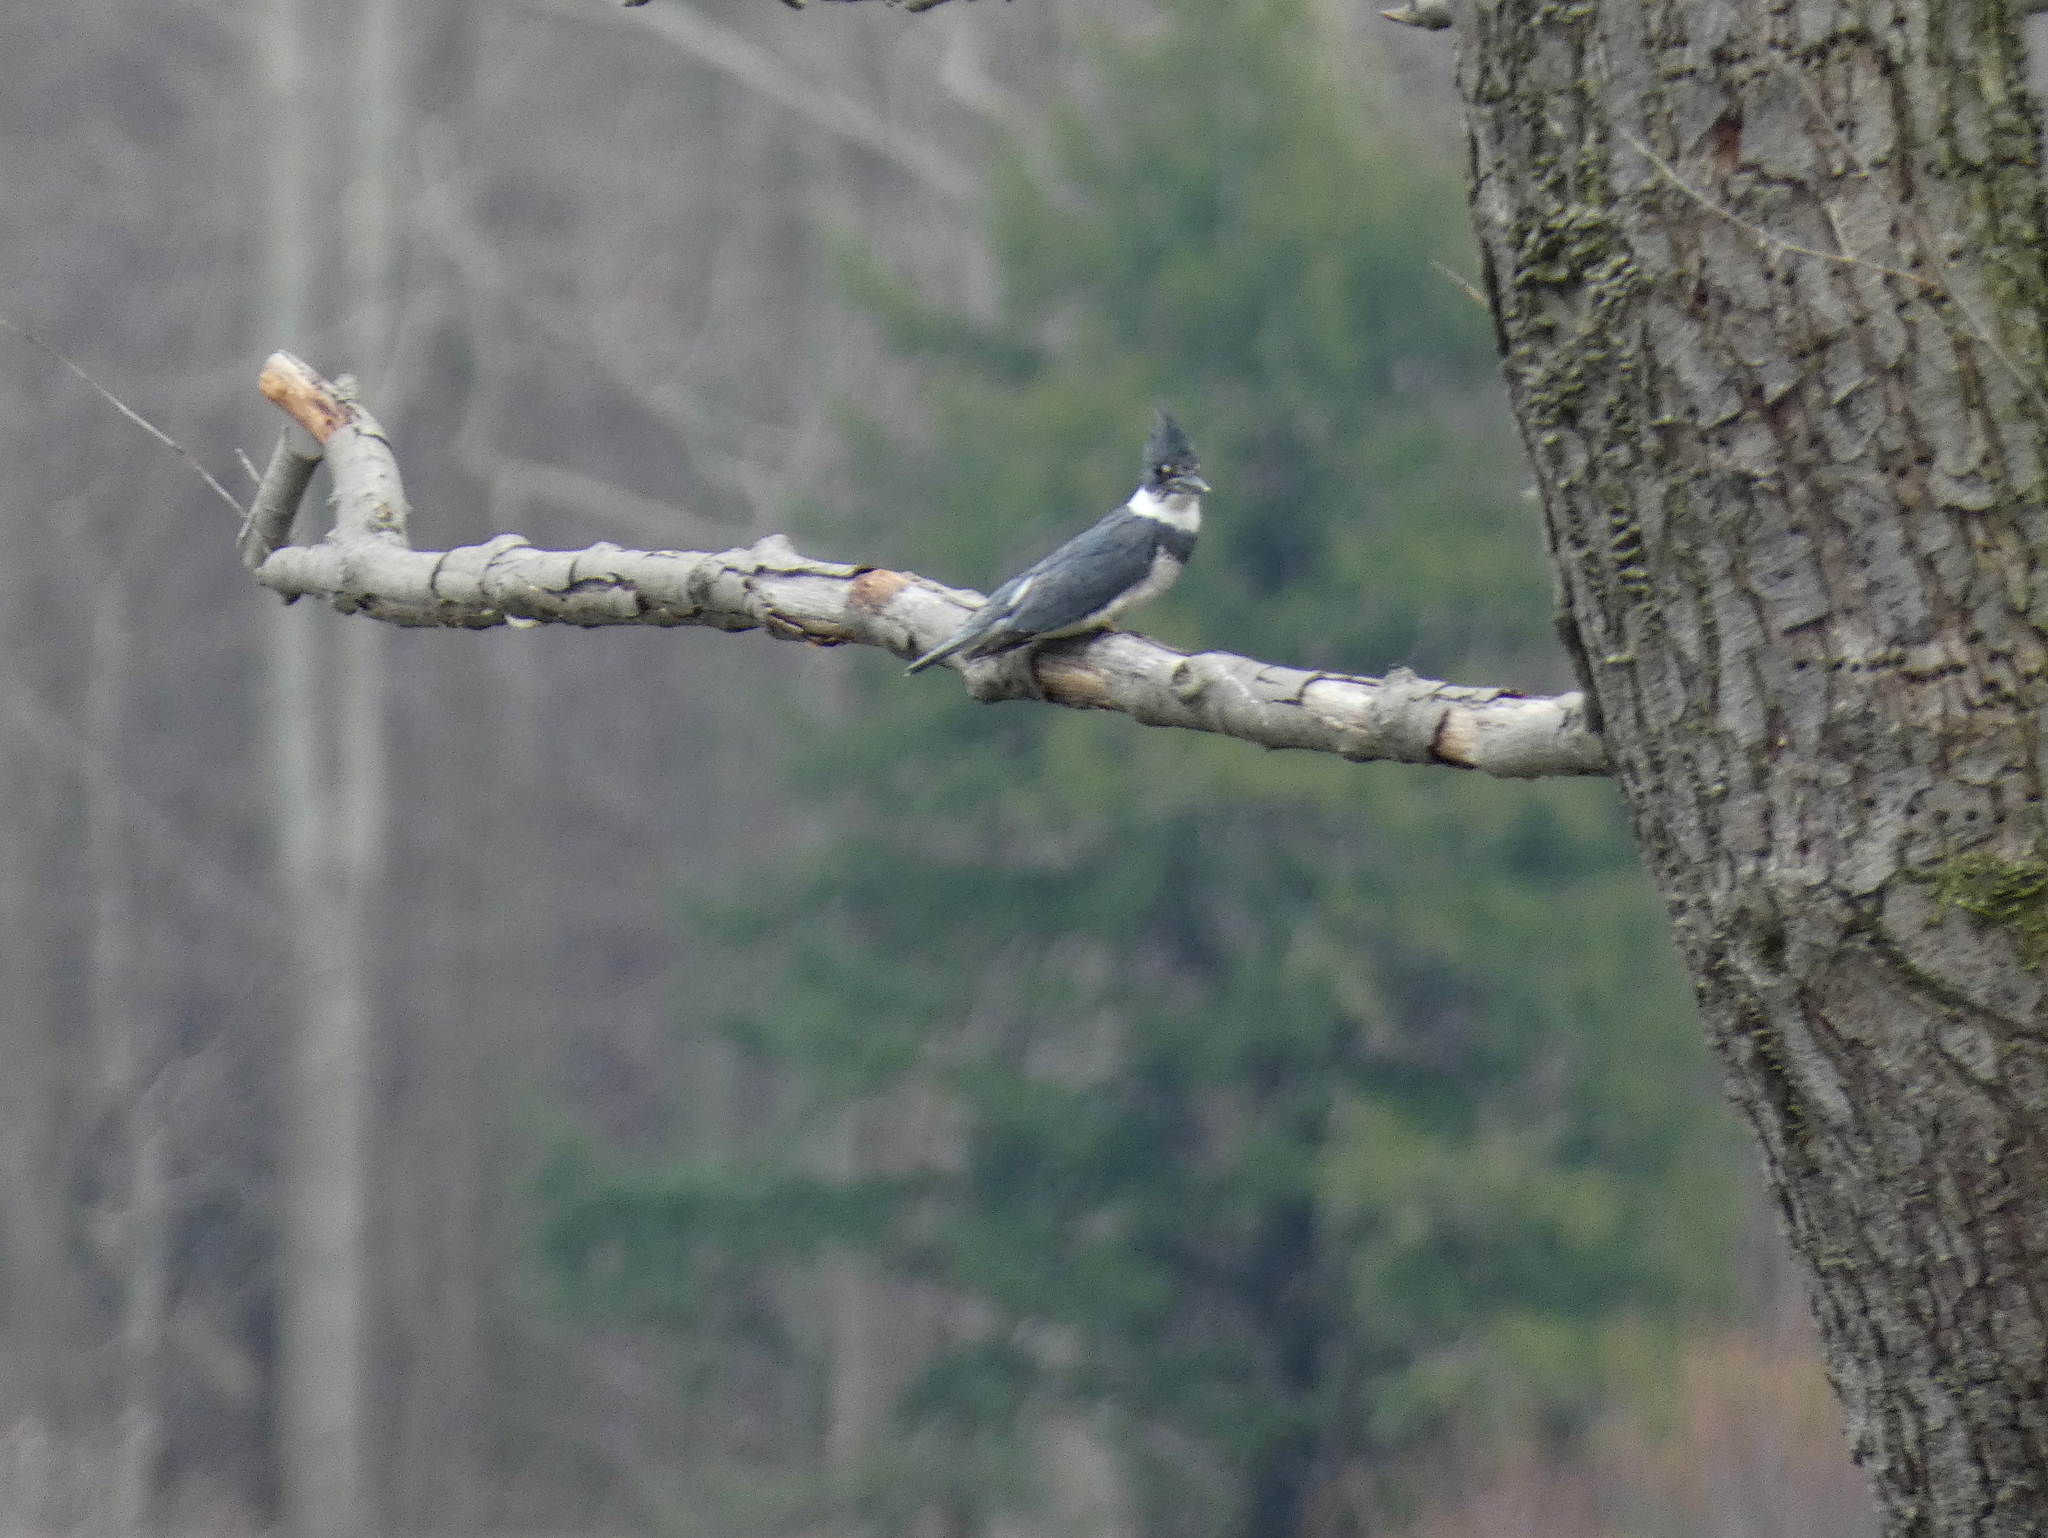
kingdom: Animalia
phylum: Chordata
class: Aves
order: Coraciiformes
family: Alcedinidae
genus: Megaceryle
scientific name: Megaceryle alcyon
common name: Belted kingfisher
